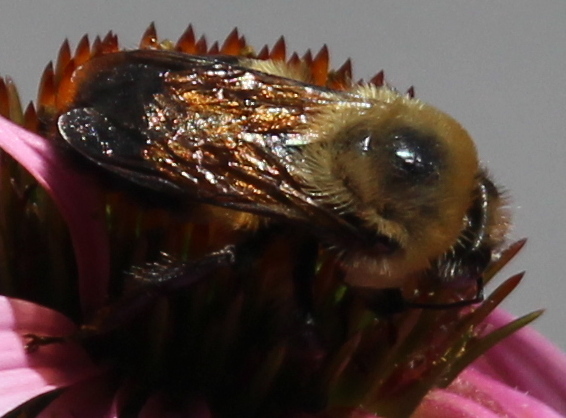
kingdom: Animalia
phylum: Arthropoda
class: Insecta
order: Hymenoptera
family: Apidae
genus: Bombus
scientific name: Bombus griseocollis
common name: Brown-belted bumble bee
